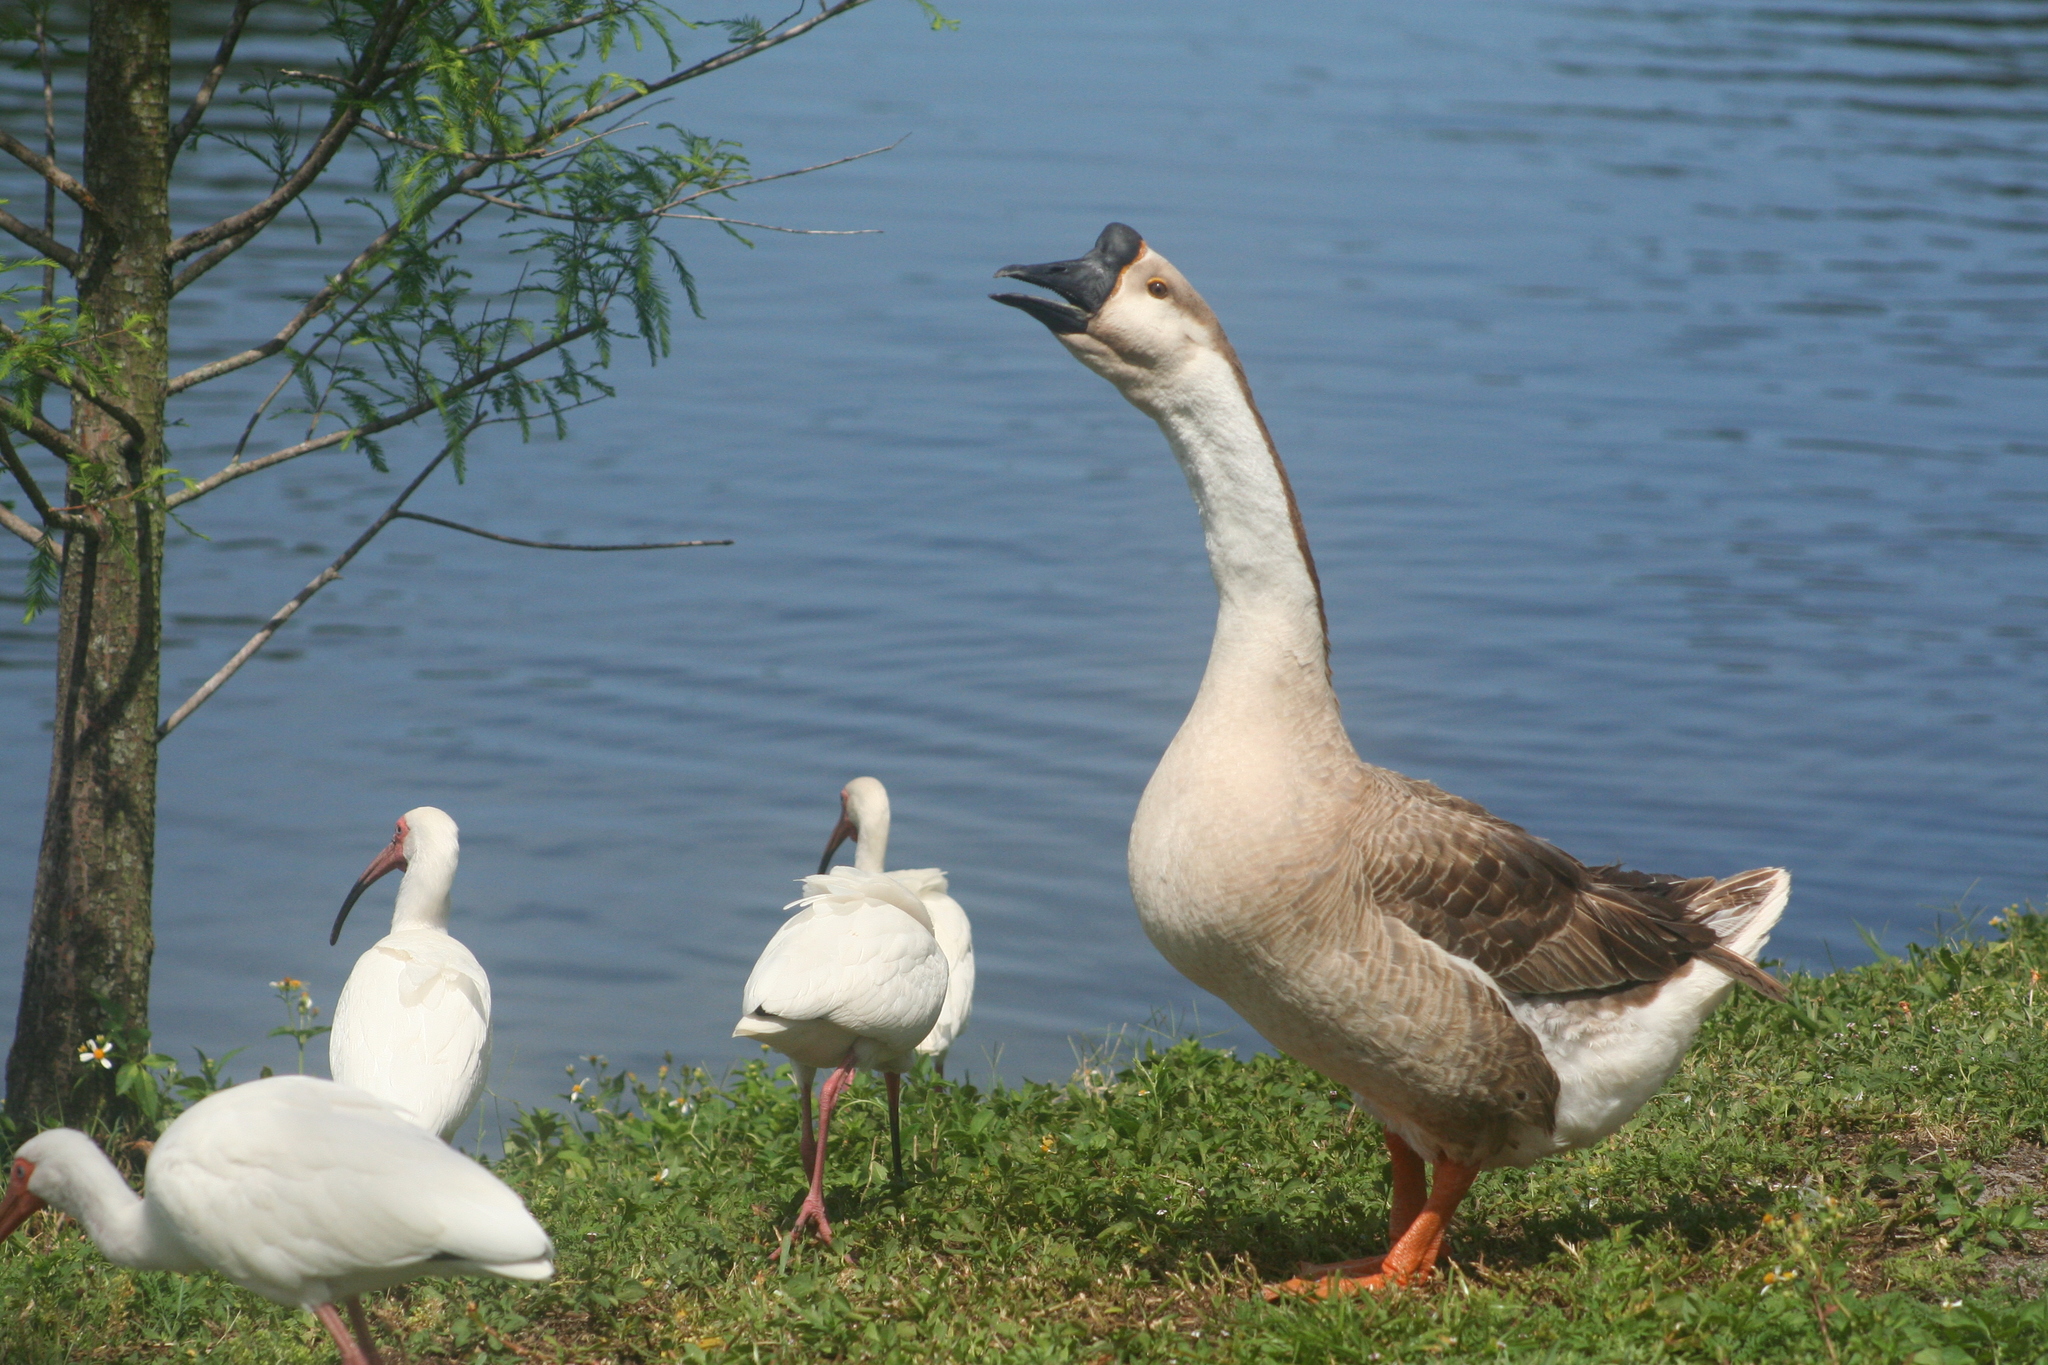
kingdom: Animalia
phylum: Chordata
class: Aves
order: Pelecaniformes
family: Threskiornithidae
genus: Eudocimus
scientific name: Eudocimus albus
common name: White ibis
